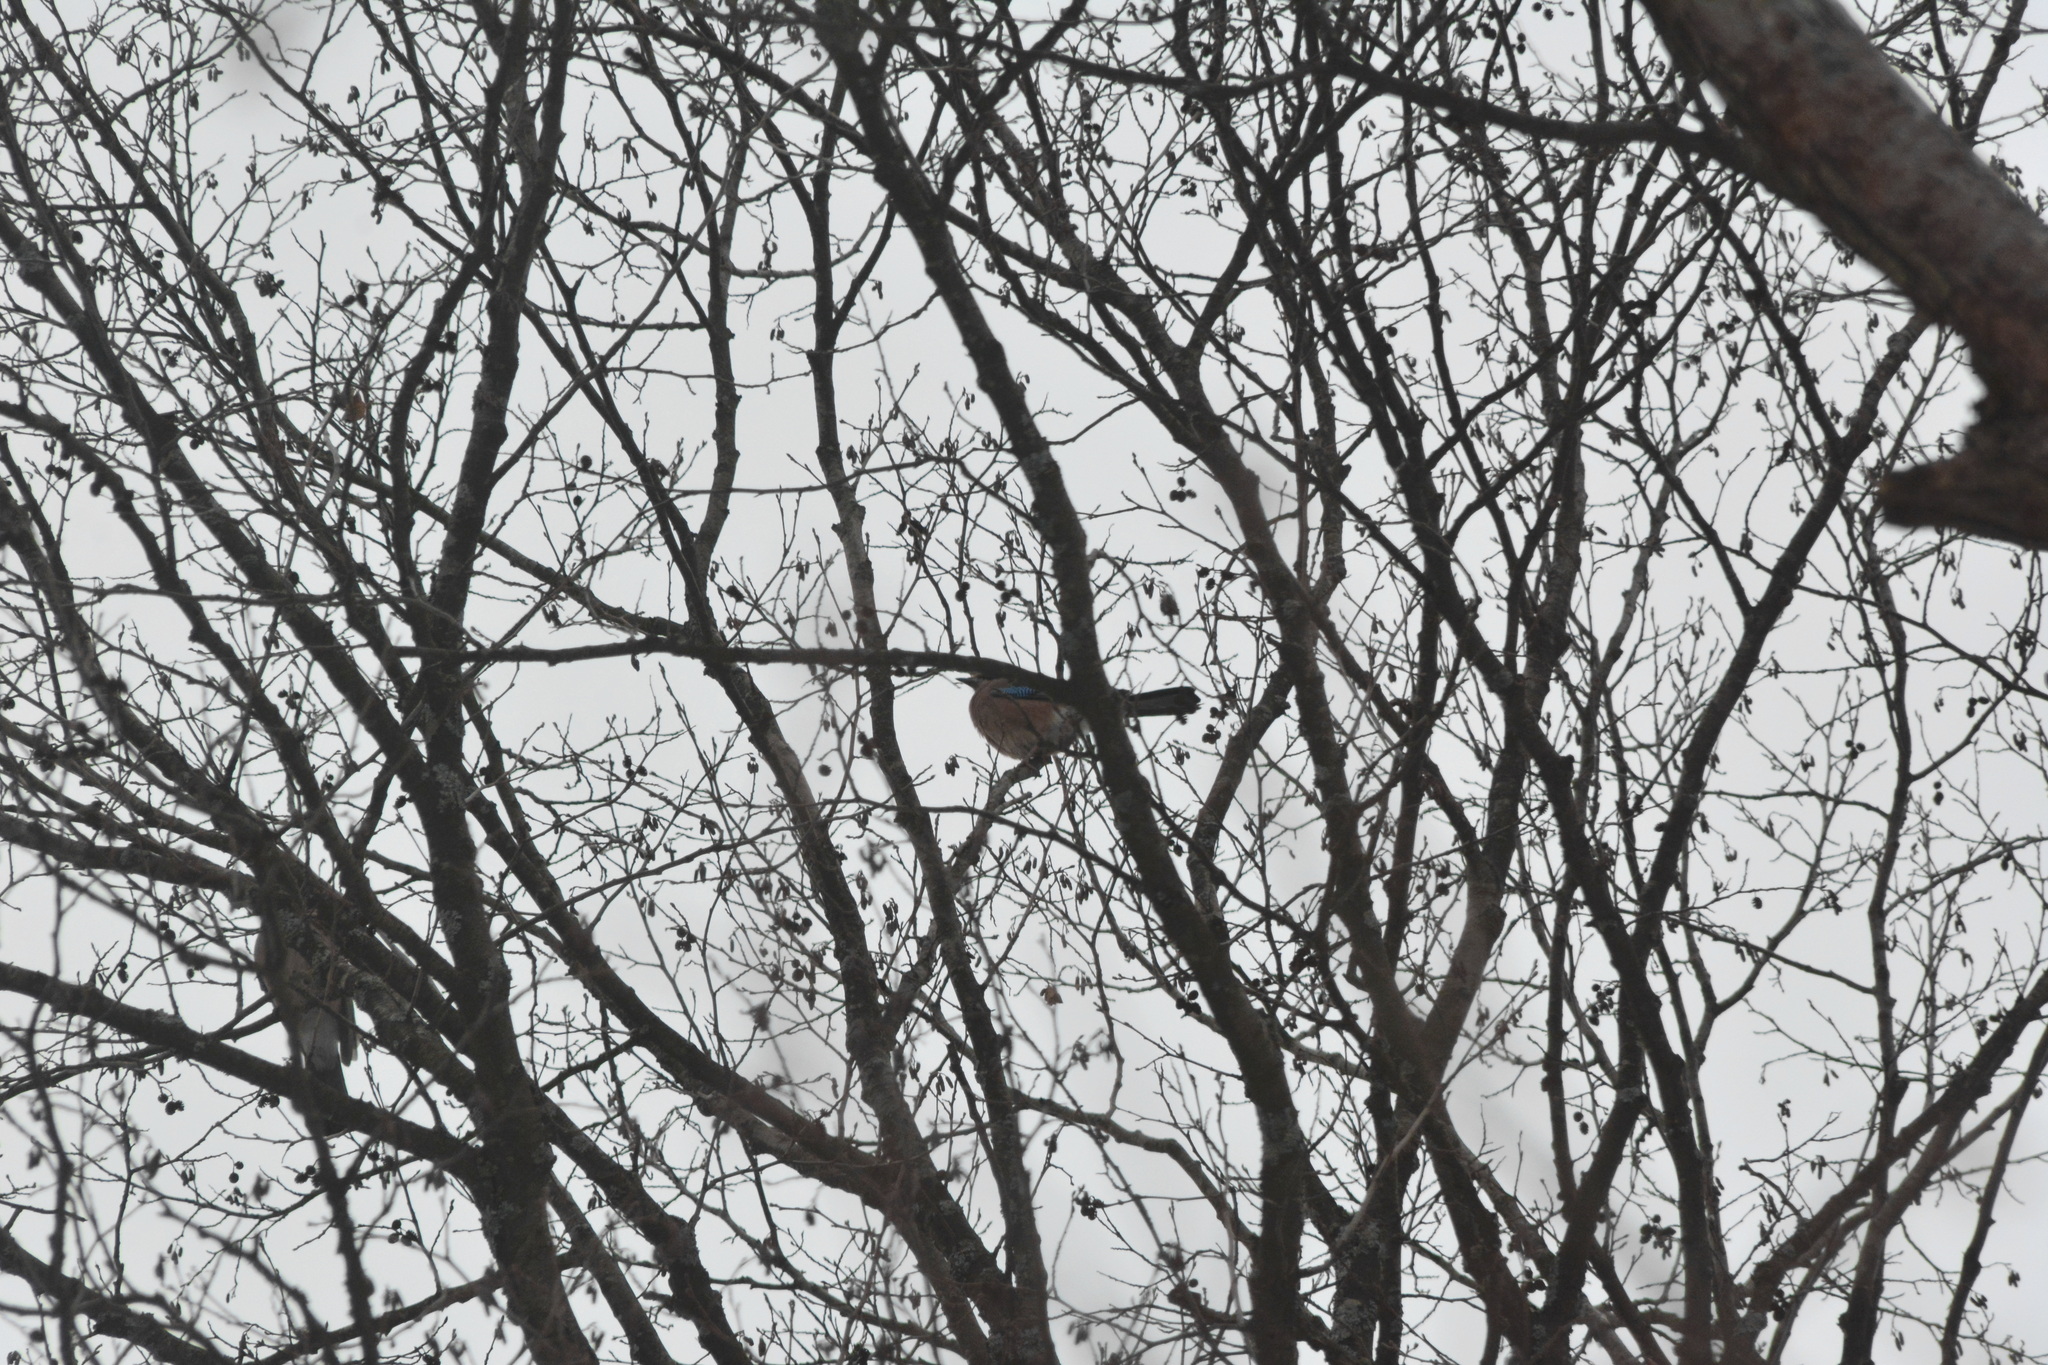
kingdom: Animalia
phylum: Chordata
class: Aves
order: Passeriformes
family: Corvidae
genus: Garrulus
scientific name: Garrulus glandarius
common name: Eurasian jay
